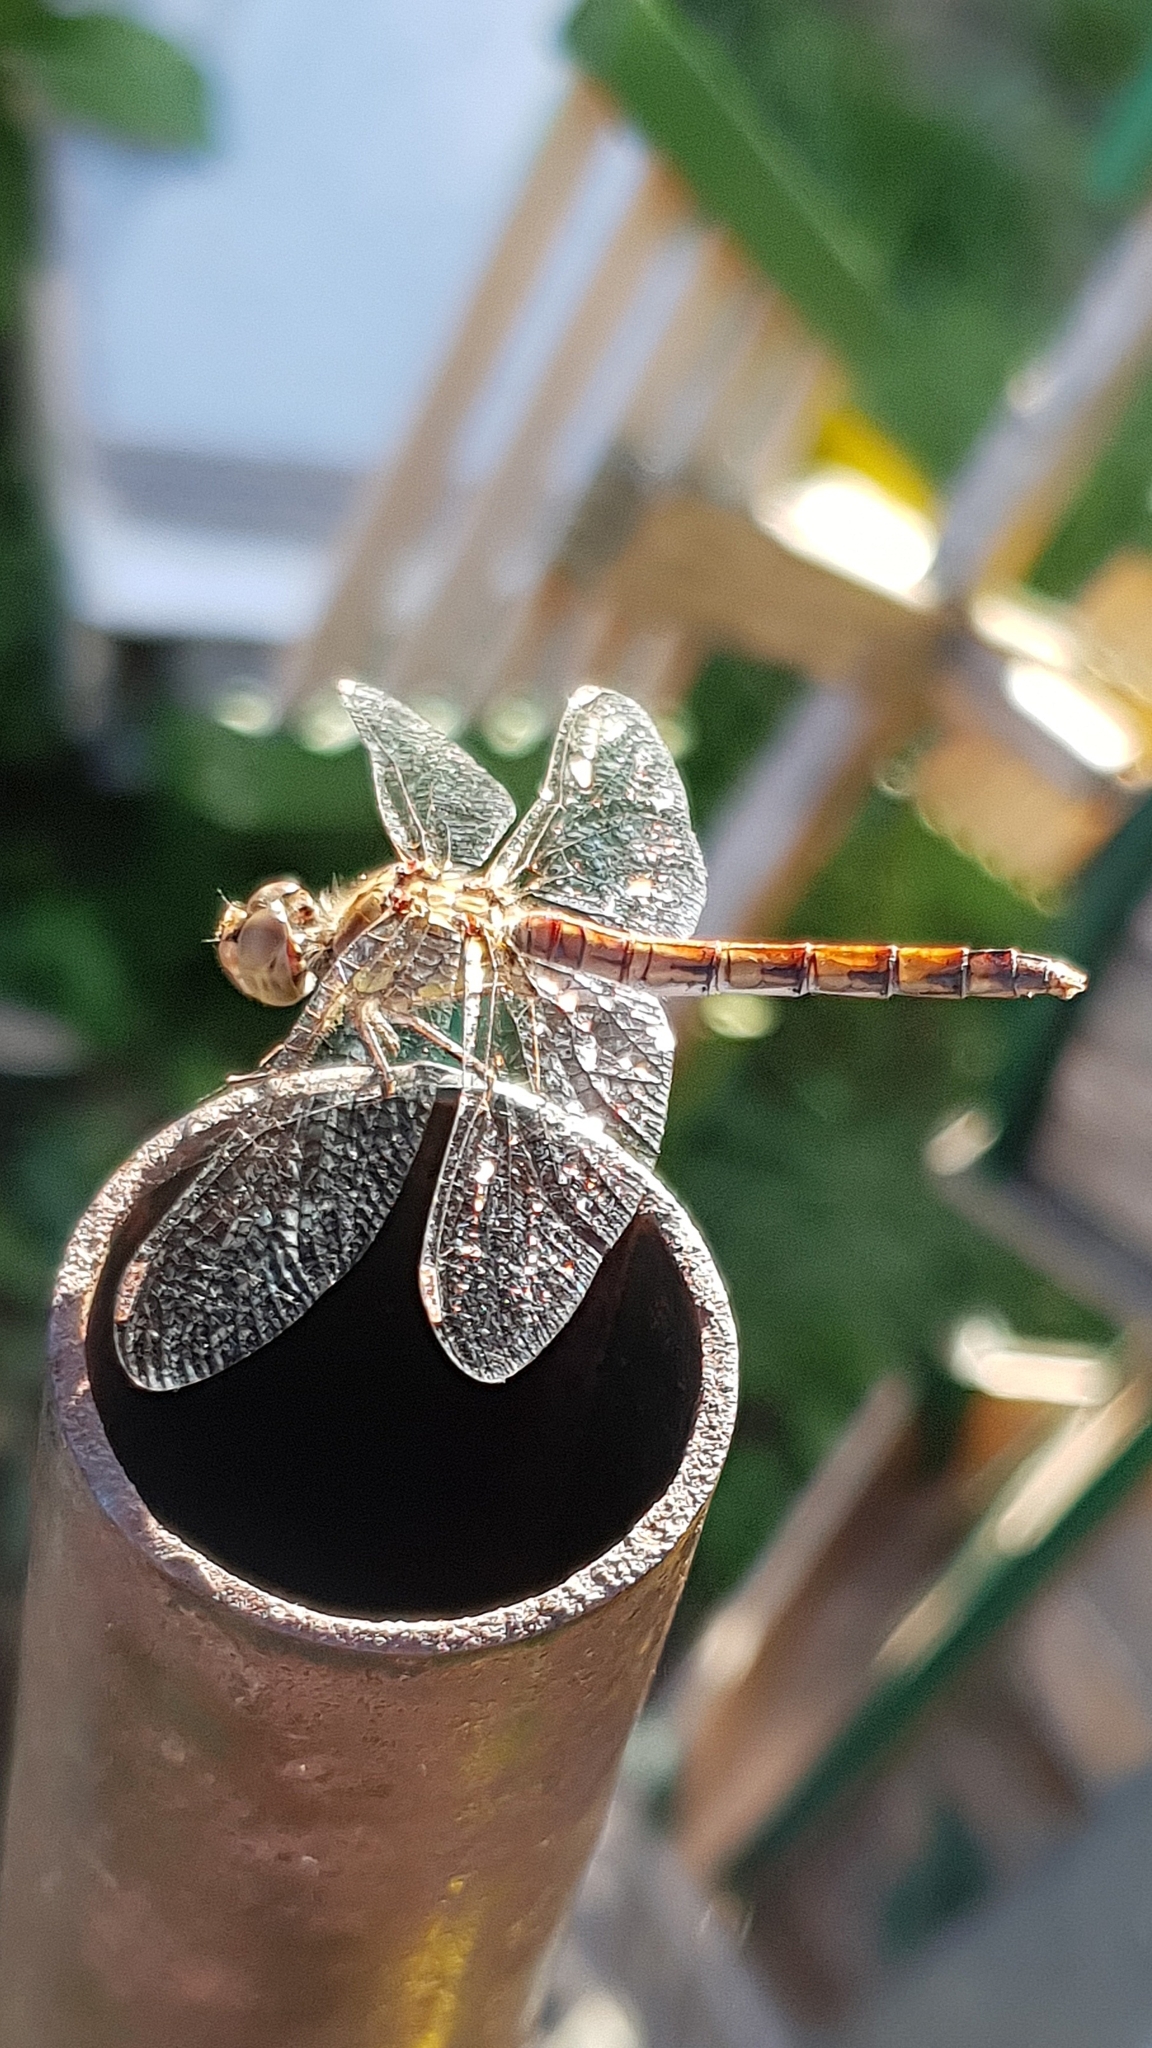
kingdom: Animalia
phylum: Arthropoda
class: Insecta
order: Odonata
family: Libellulidae
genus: Sympetrum
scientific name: Sympetrum striolatum
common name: Common darter
